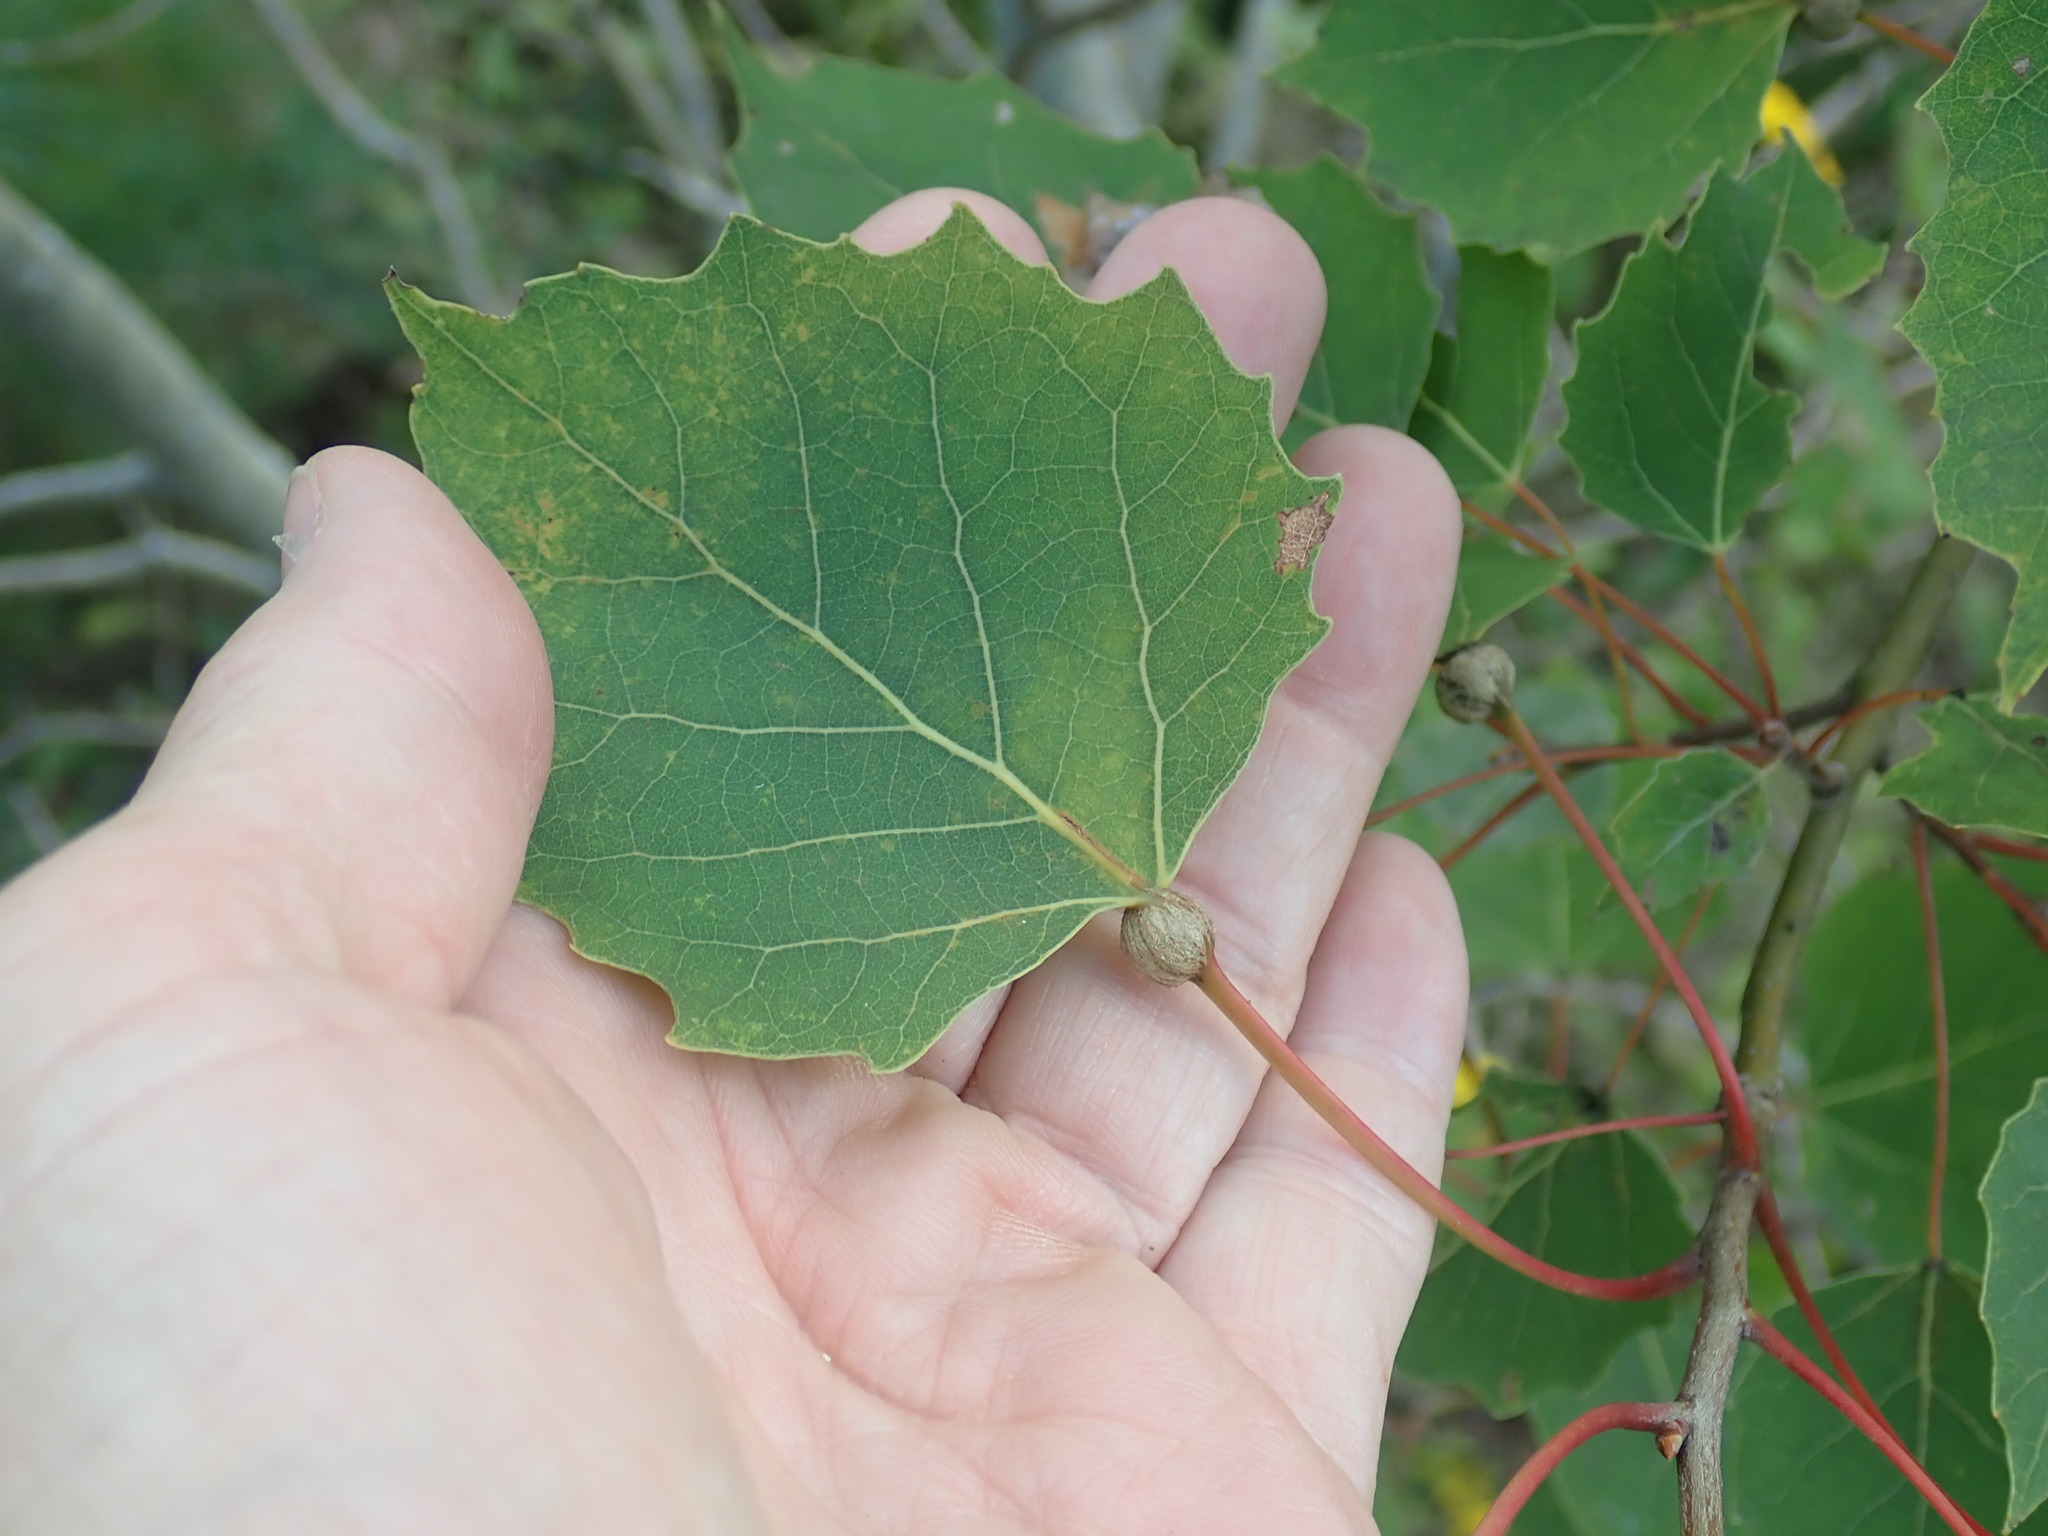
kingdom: Animalia
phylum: Arthropoda
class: Insecta
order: Lepidoptera
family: Nepticulidae
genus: Ectoedemia
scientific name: Ectoedemia populella
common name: Aspen petiole gall moth
